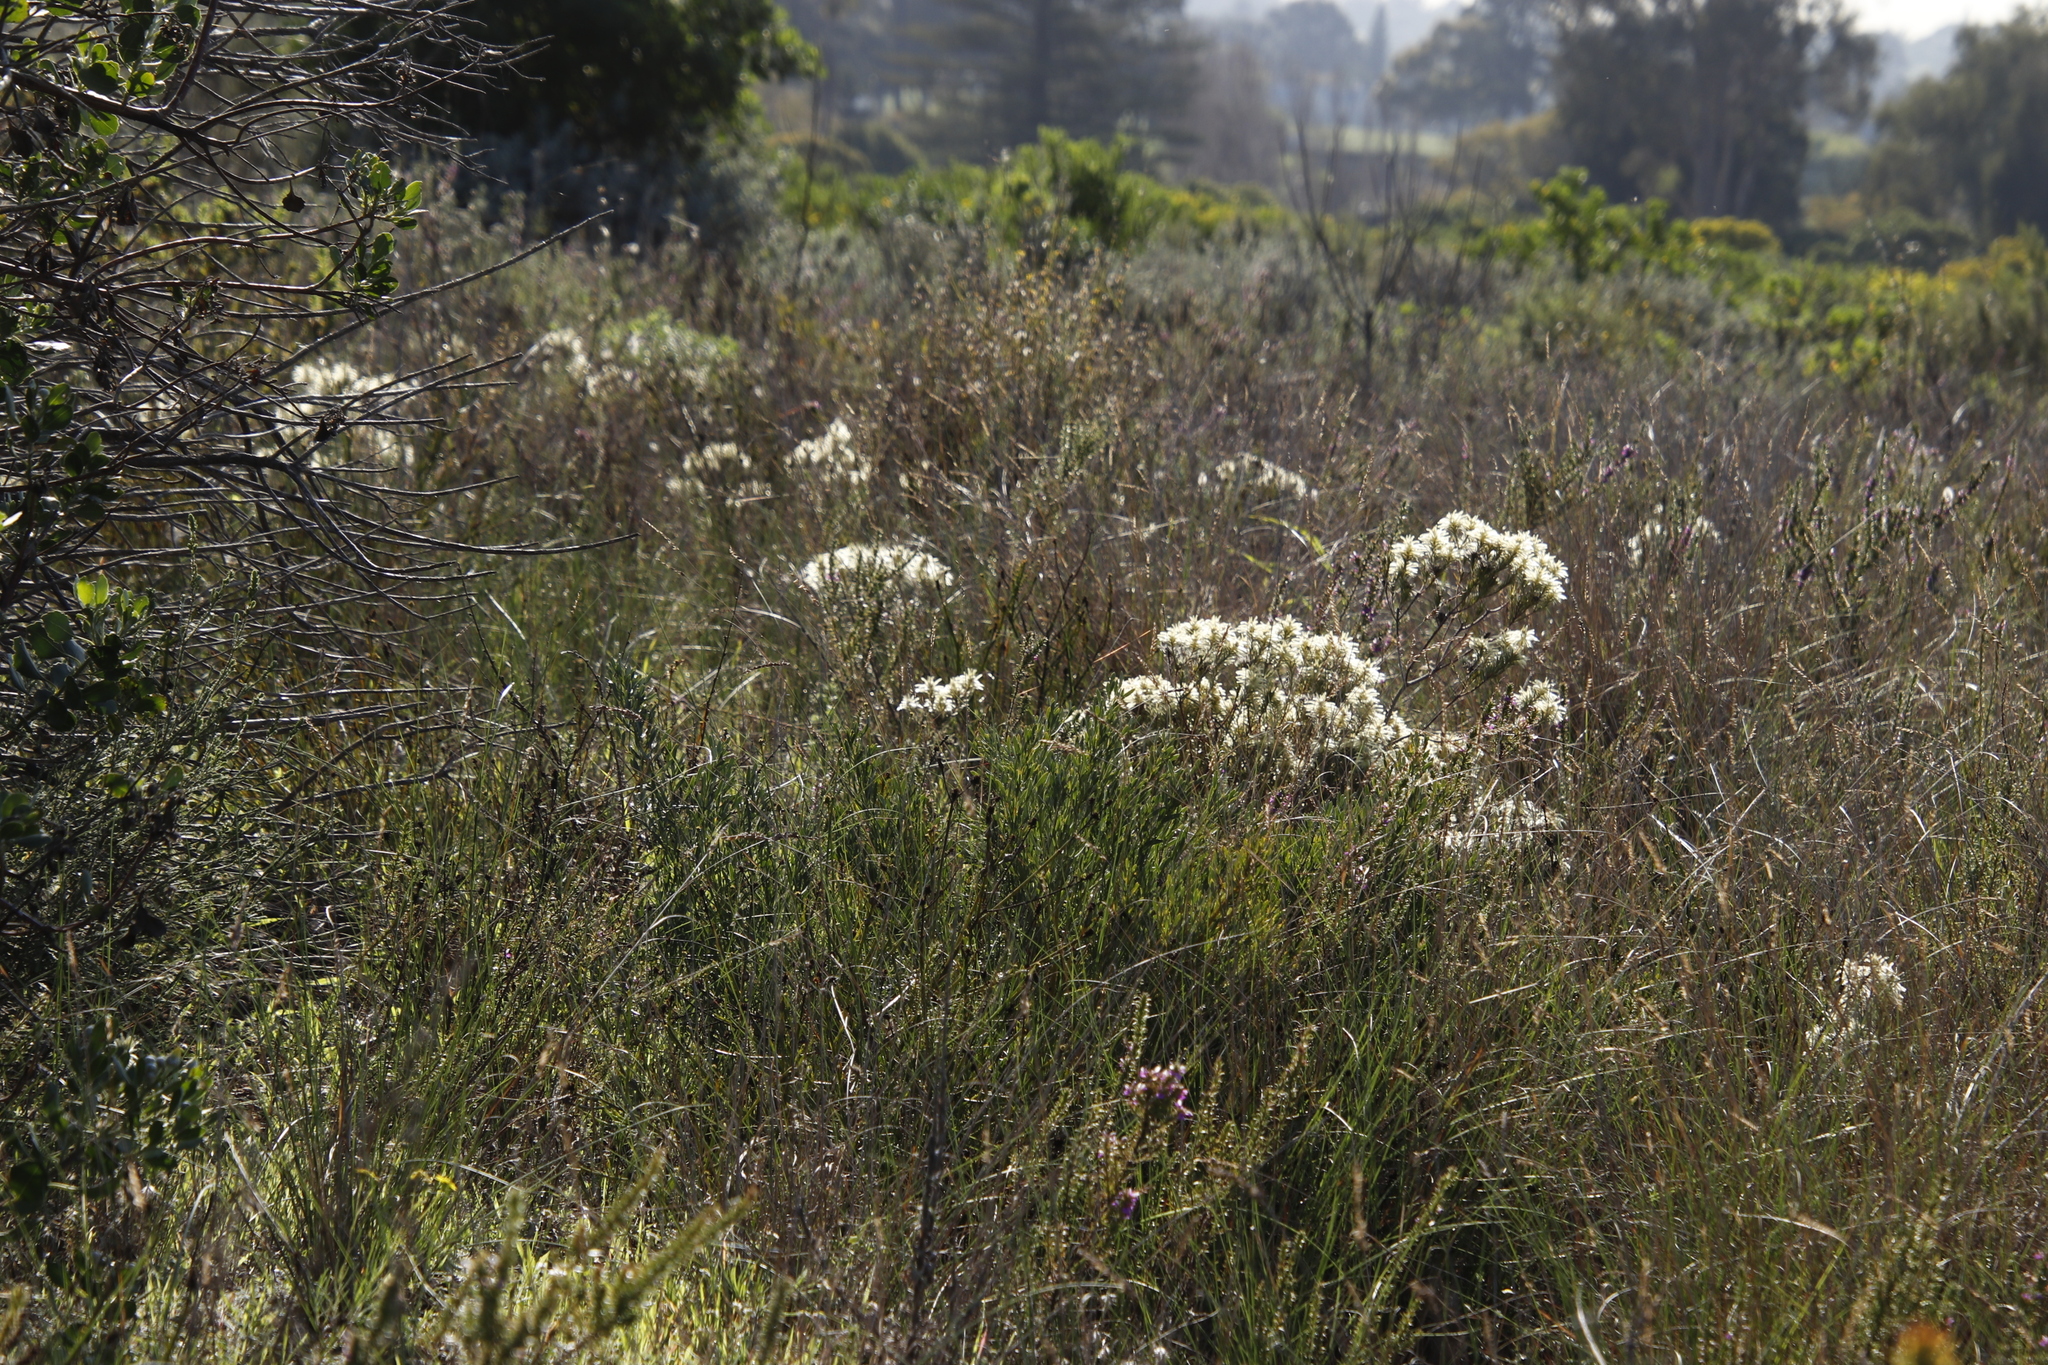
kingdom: Plantae
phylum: Tracheophyta
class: Magnoliopsida
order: Rosales
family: Rhamnaceae
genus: Phylica
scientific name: Phylica pubescens
